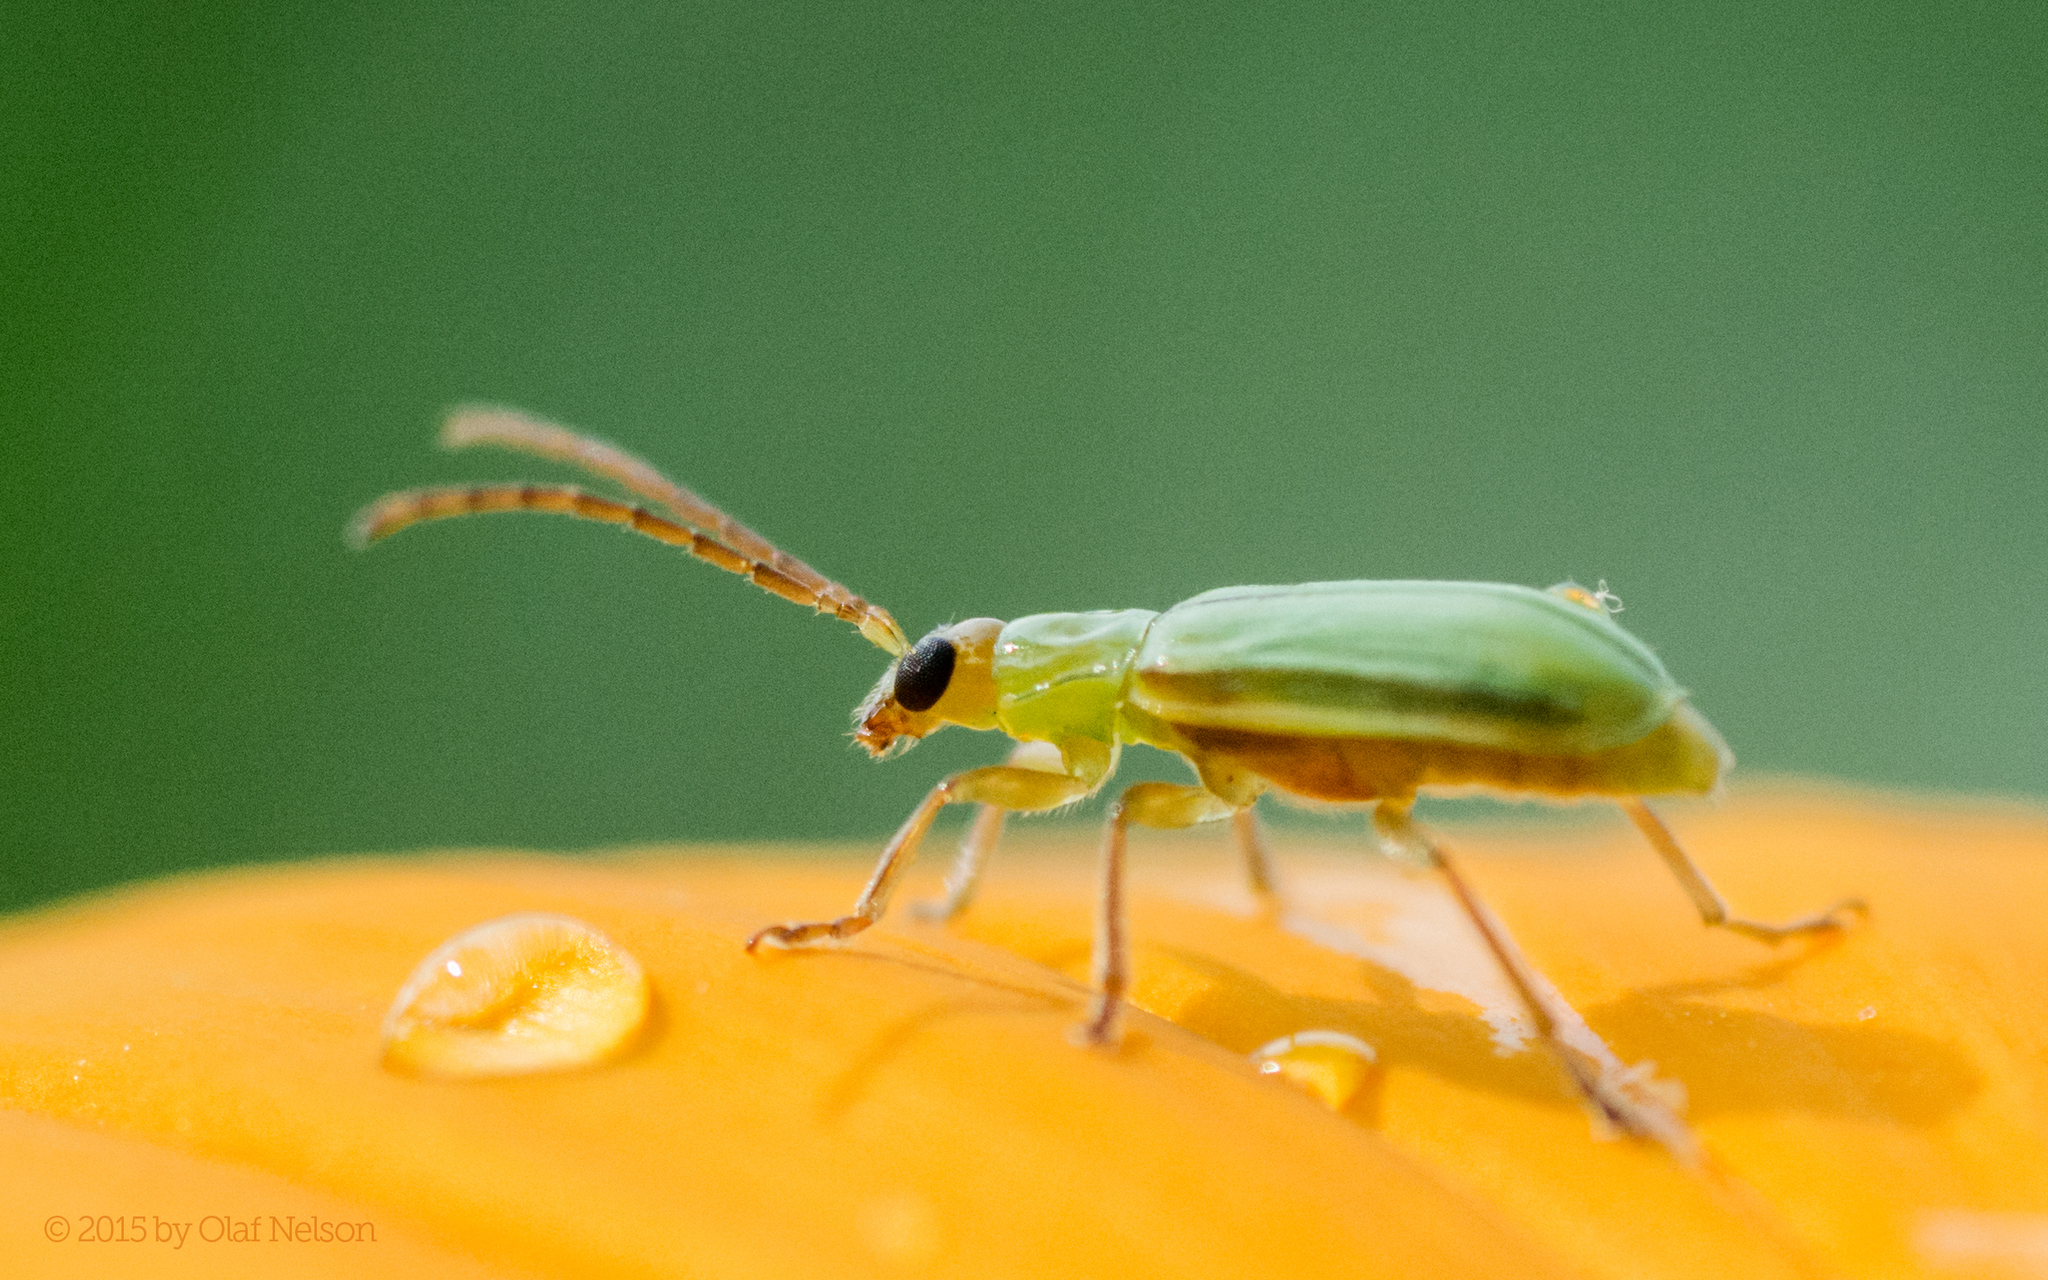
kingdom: Animalia
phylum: Arthropoda
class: Insecta
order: Coleoptera
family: Chrysomelidae
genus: Diabrotica
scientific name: Diabrotica barberi
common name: Northern corn rootworm
